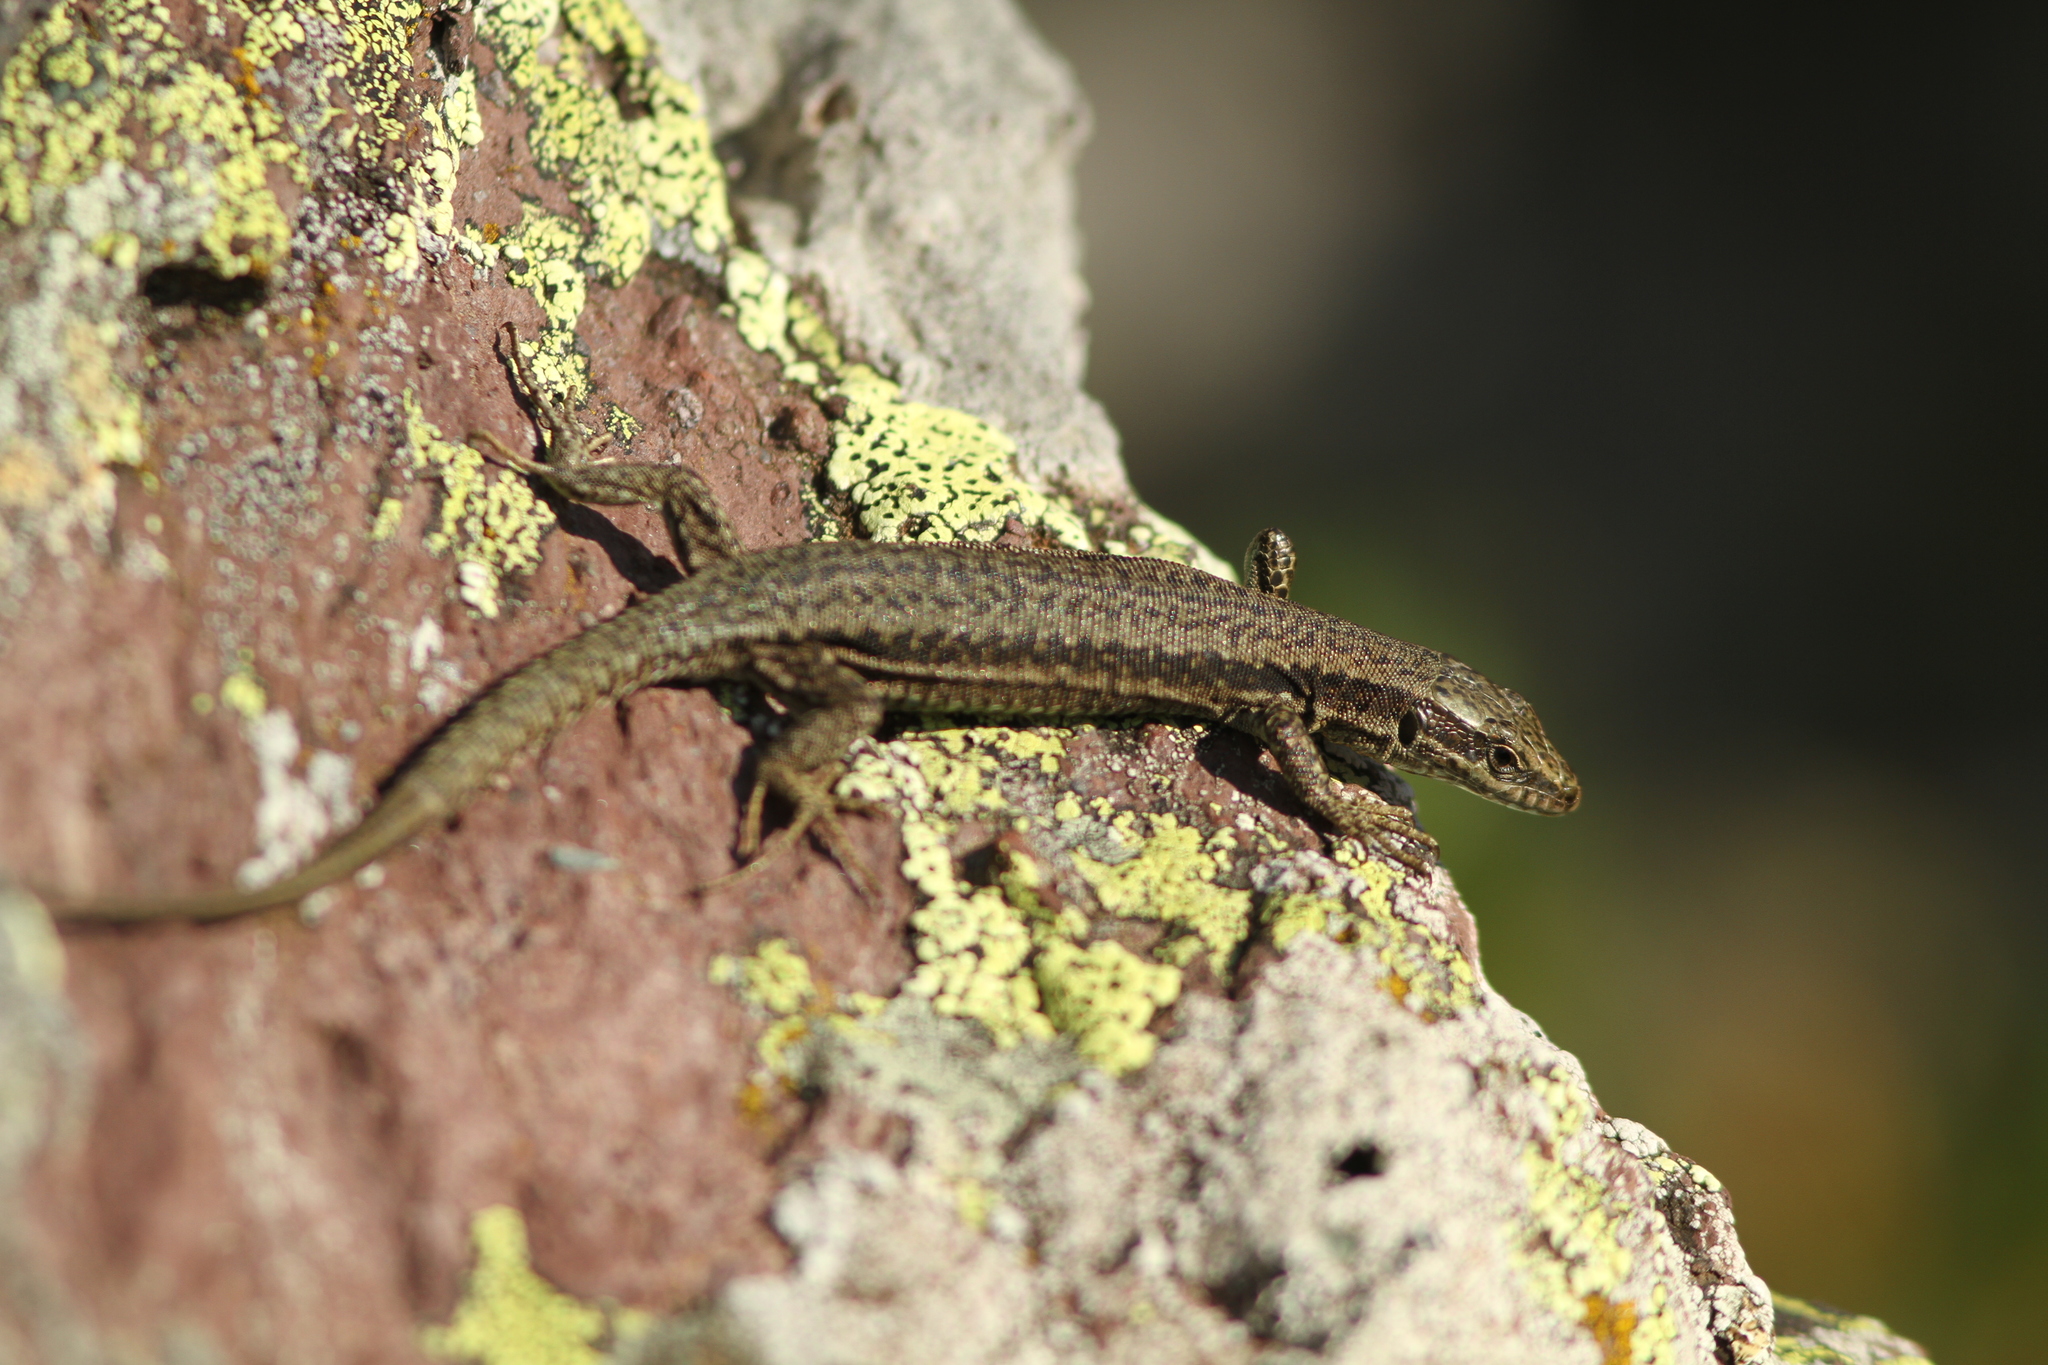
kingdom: Animalia
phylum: Chordata
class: Squamata
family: Lacertidae
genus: Podarcis
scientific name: Podarcis muralis
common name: Common wall lizard
